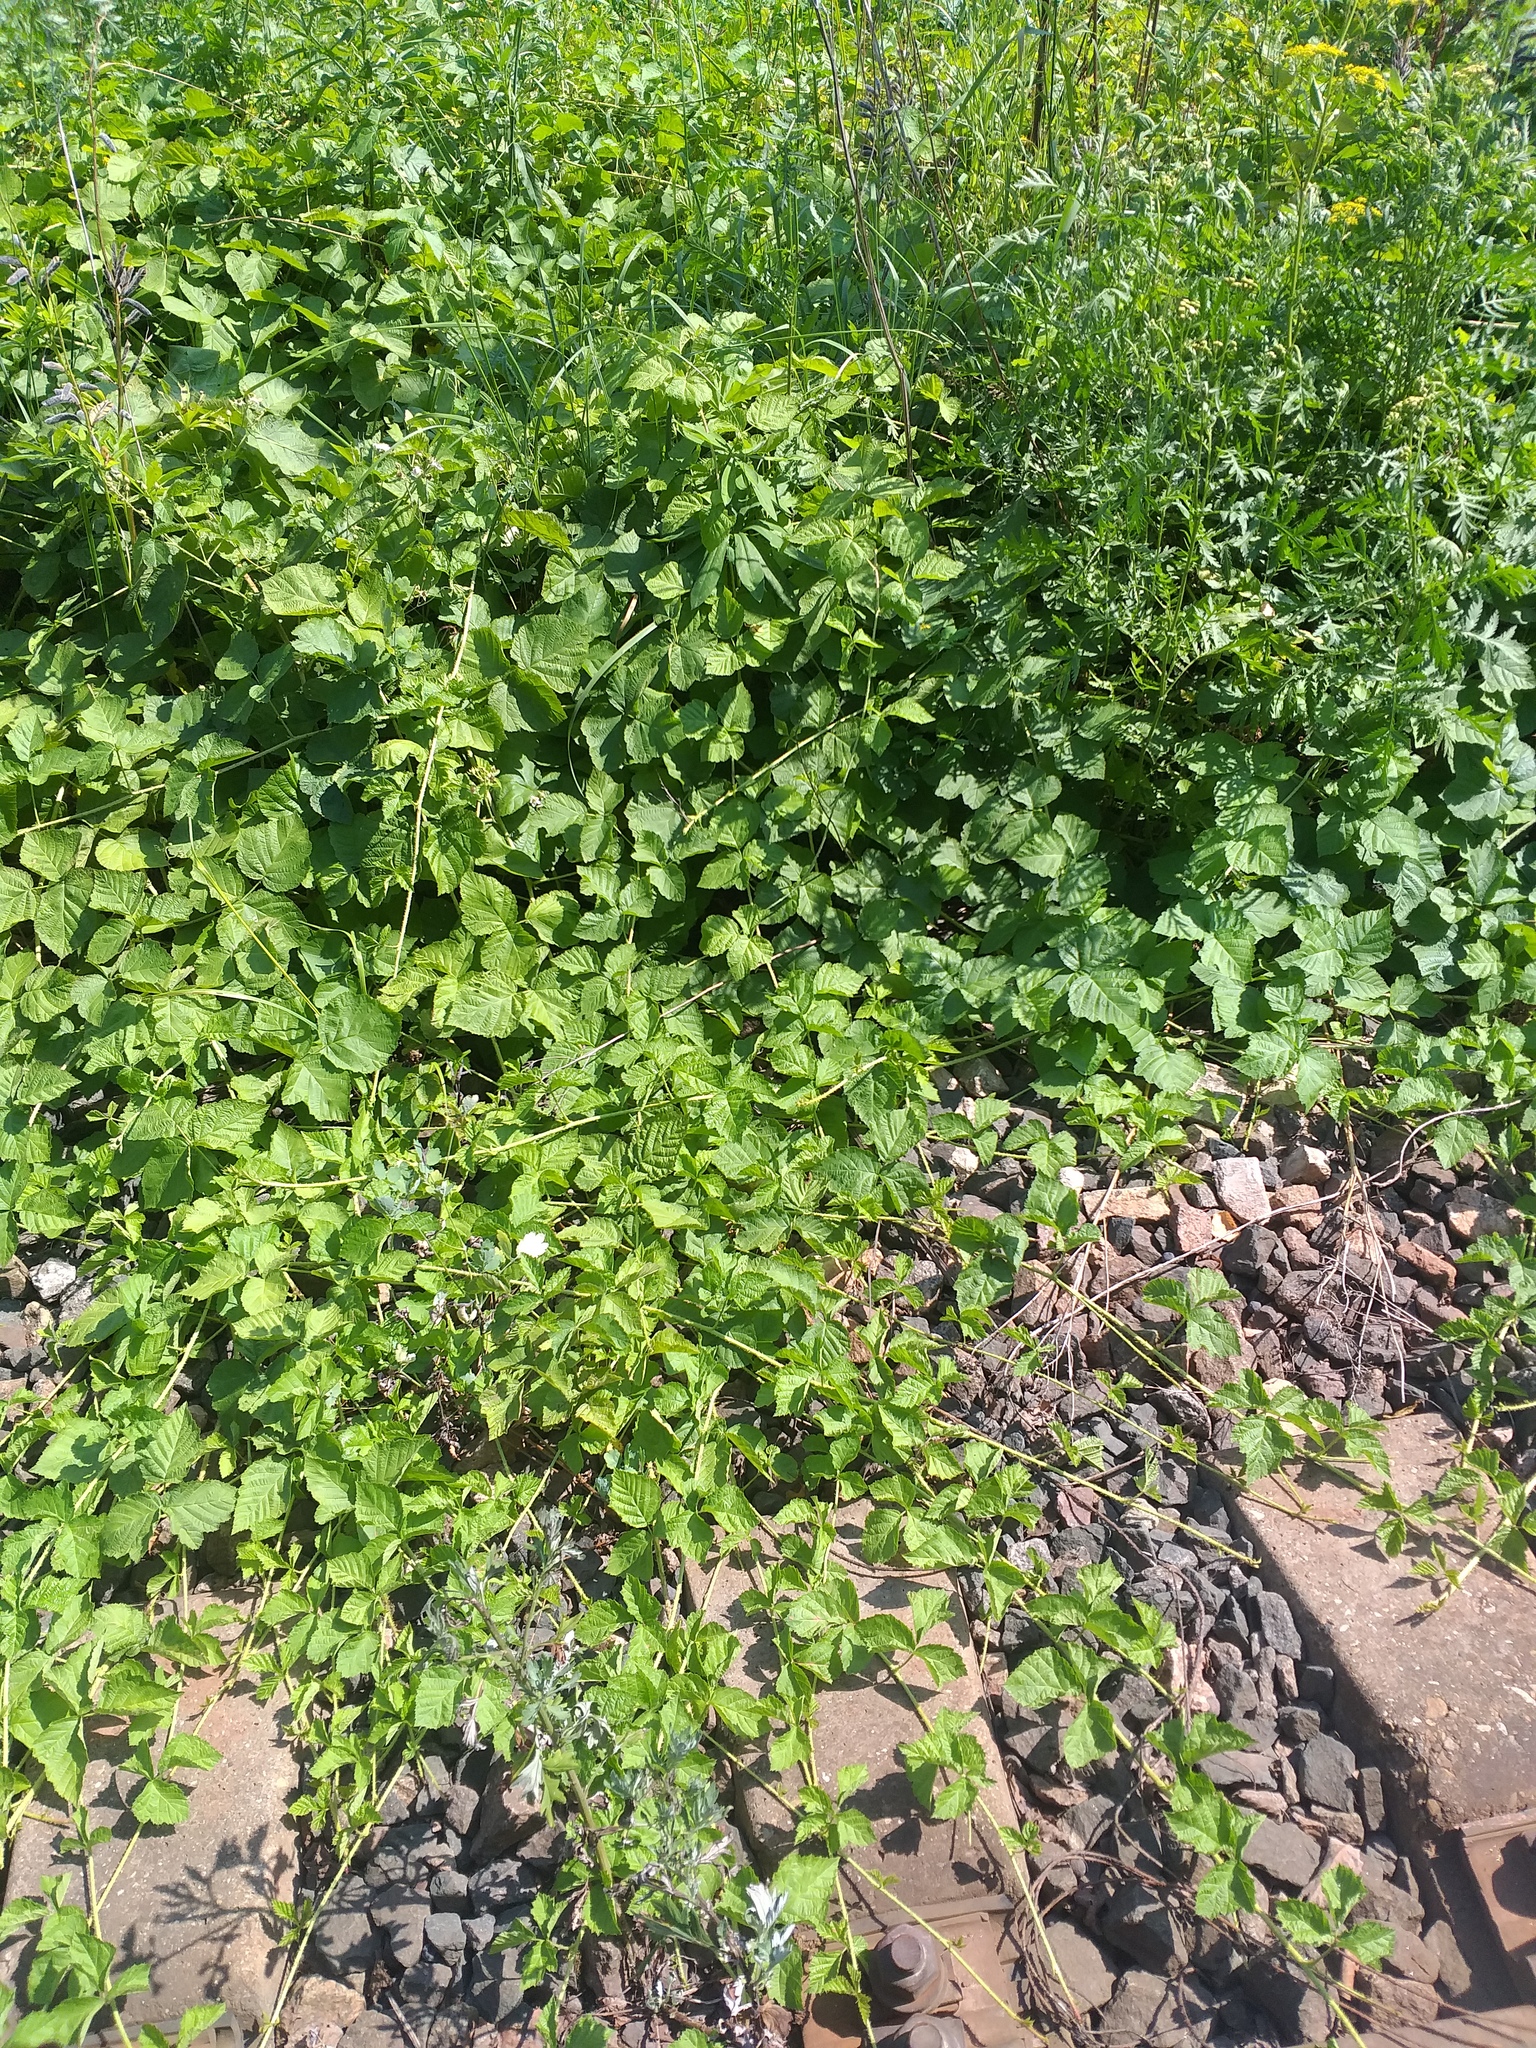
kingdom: Plantae
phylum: Tracheophyta
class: Magnoliopsida
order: Rosales
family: Rosaceae
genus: Rubus
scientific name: Rubus caesius
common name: Dewberry
